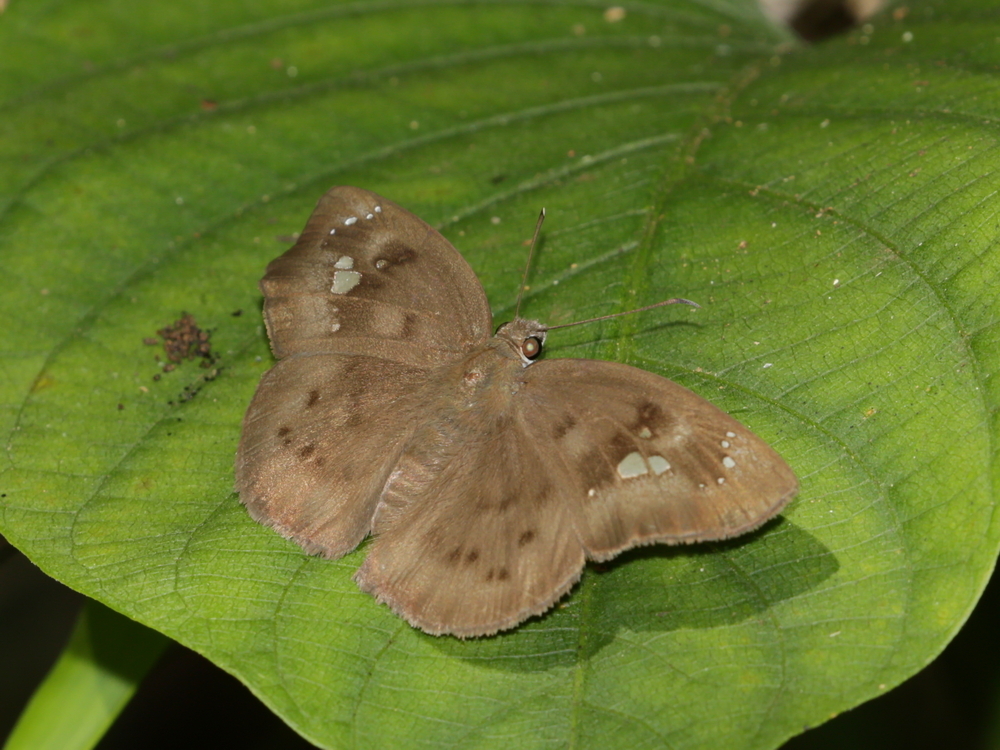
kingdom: Animalia
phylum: Arthropoda
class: Insecta
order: Lepidoptera
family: Hesperiidae
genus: Tagiades
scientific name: Tagiades japetus
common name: Pied flat
